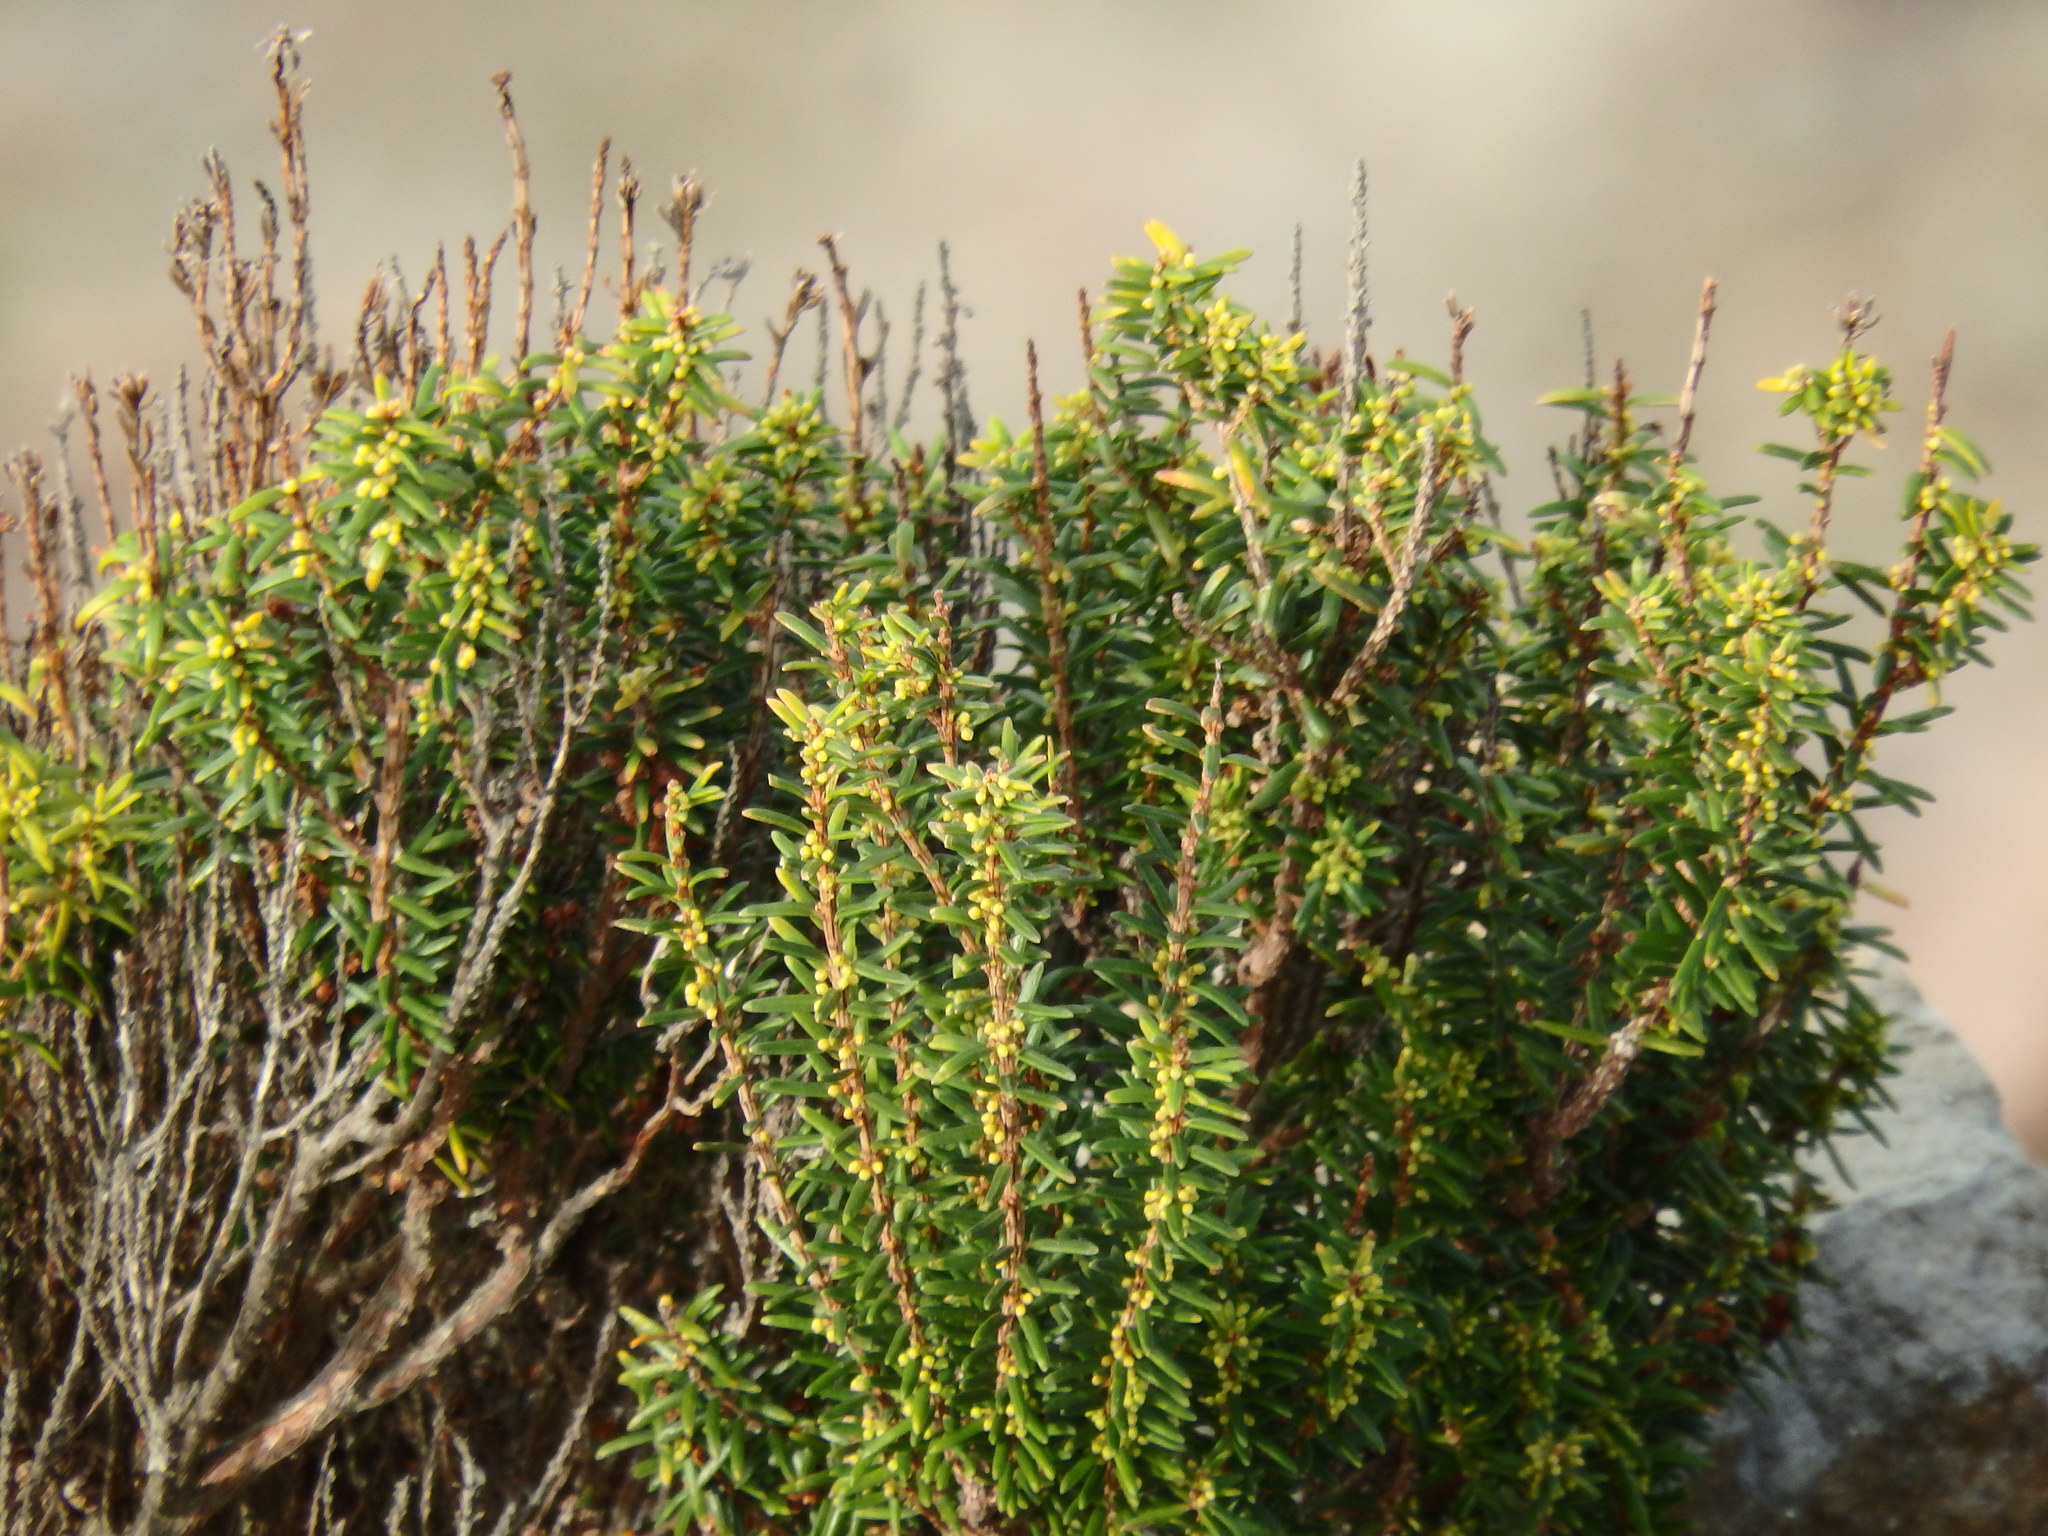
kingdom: Plantae
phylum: Tracheophyta
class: Magnoliopsida
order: Ericales
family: Ericaceae
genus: Erica
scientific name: Erica platycodon
